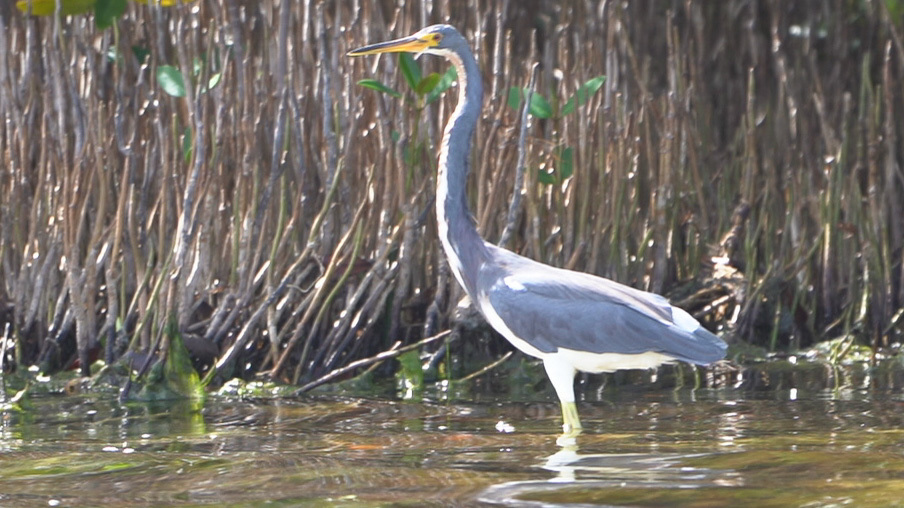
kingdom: Animalia
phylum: Chordata
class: Aves
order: Pelecaniformes
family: Ardeidae
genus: Egretta
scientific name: Egretta tricolor
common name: Tricolored heron
